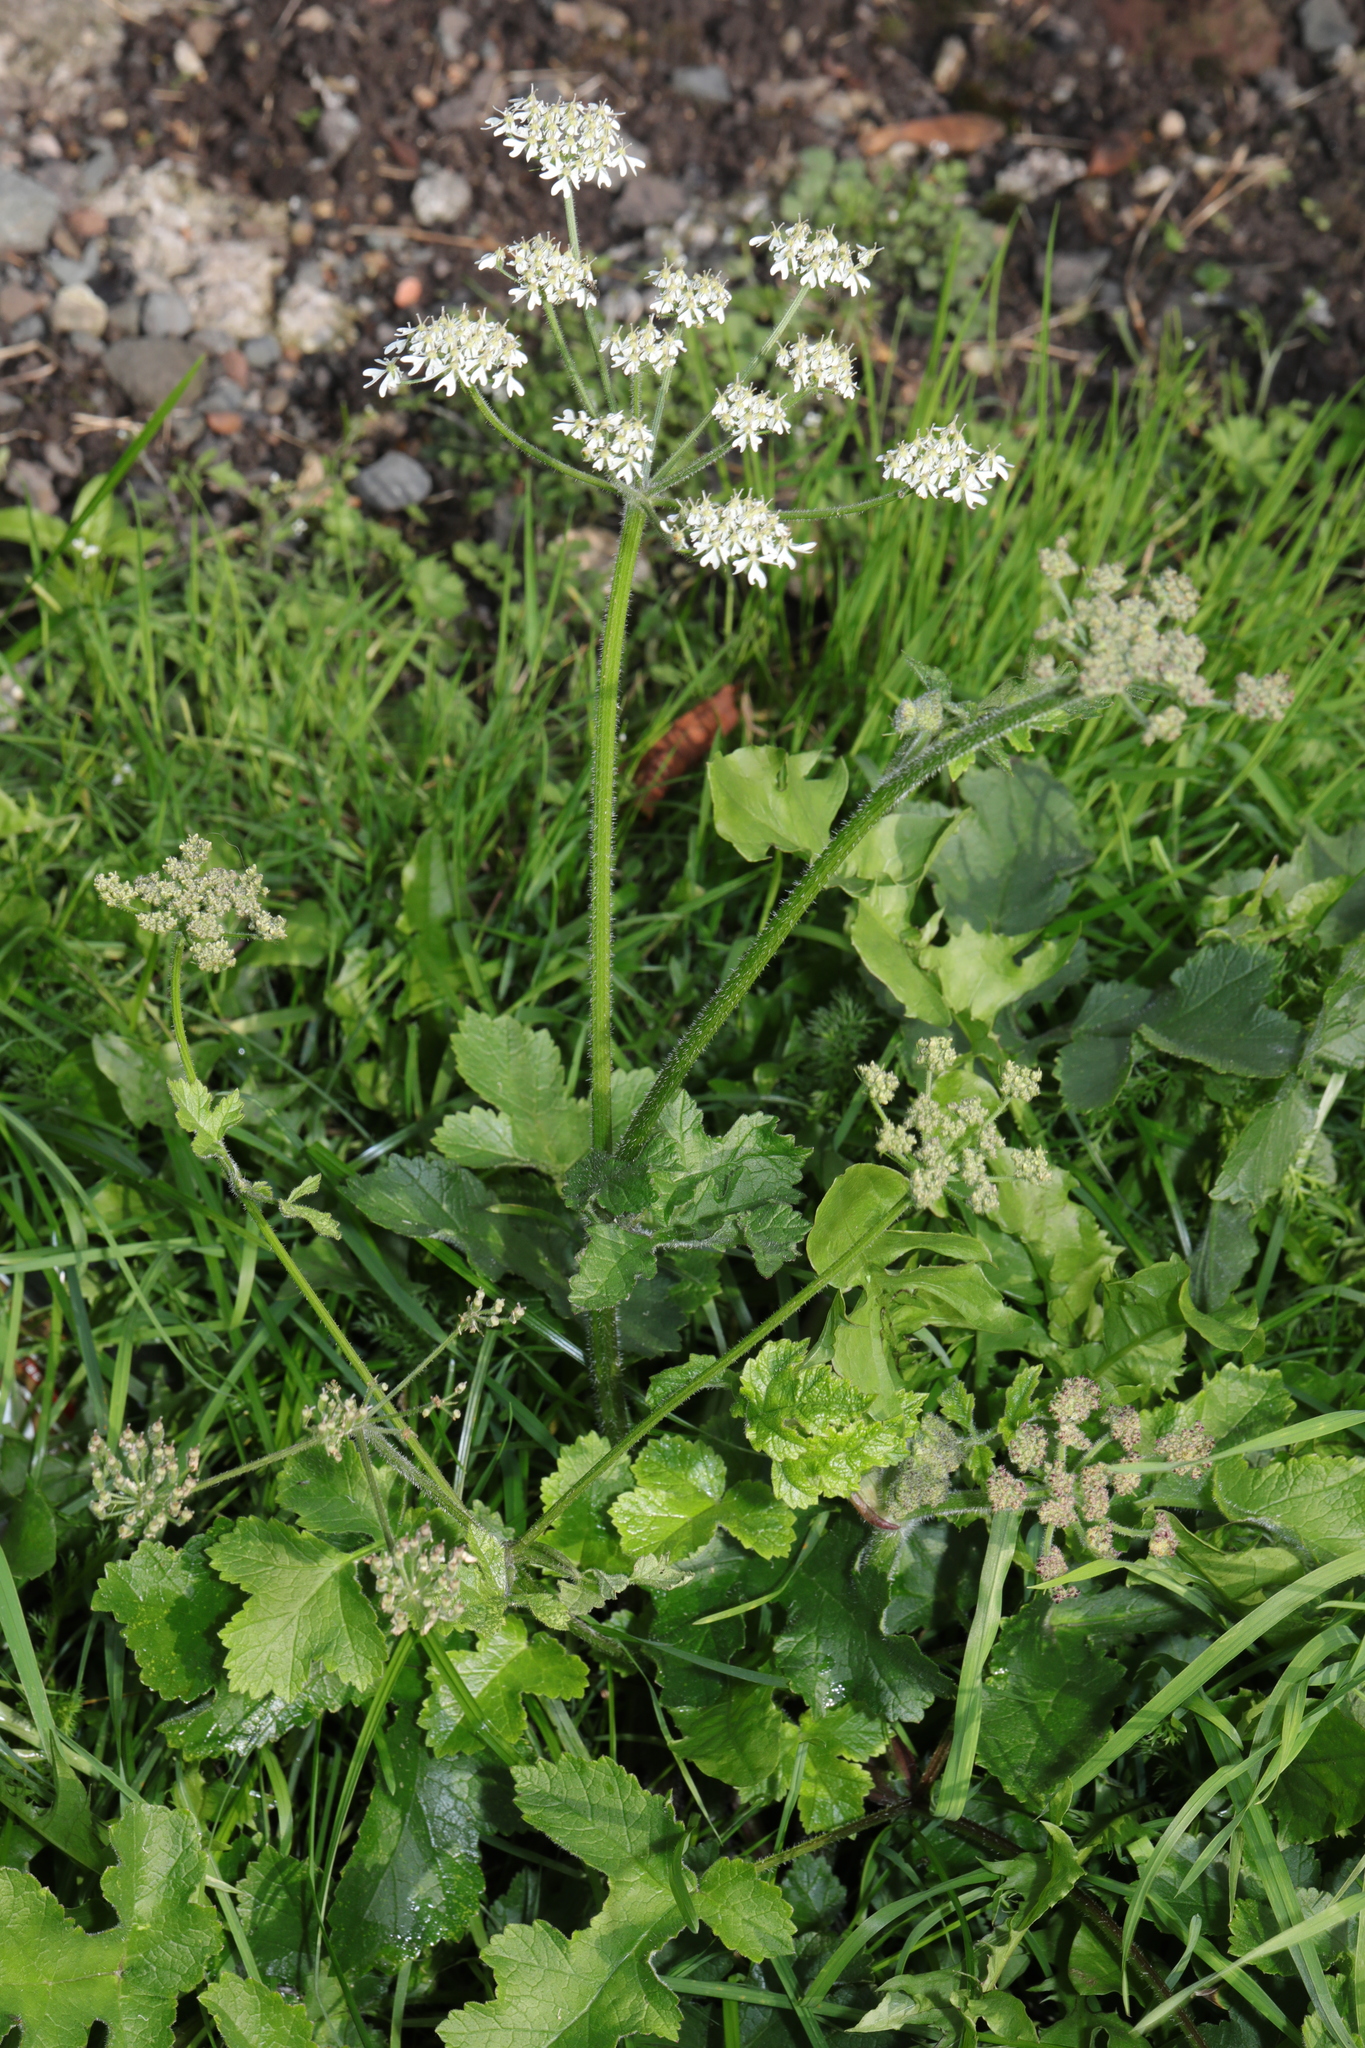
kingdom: Plantae
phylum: Tracheophyta
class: Magnoliopsida
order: Apiales
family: Apiaceae
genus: Heracleum
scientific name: Heracleum sphondylium
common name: Hogweed
